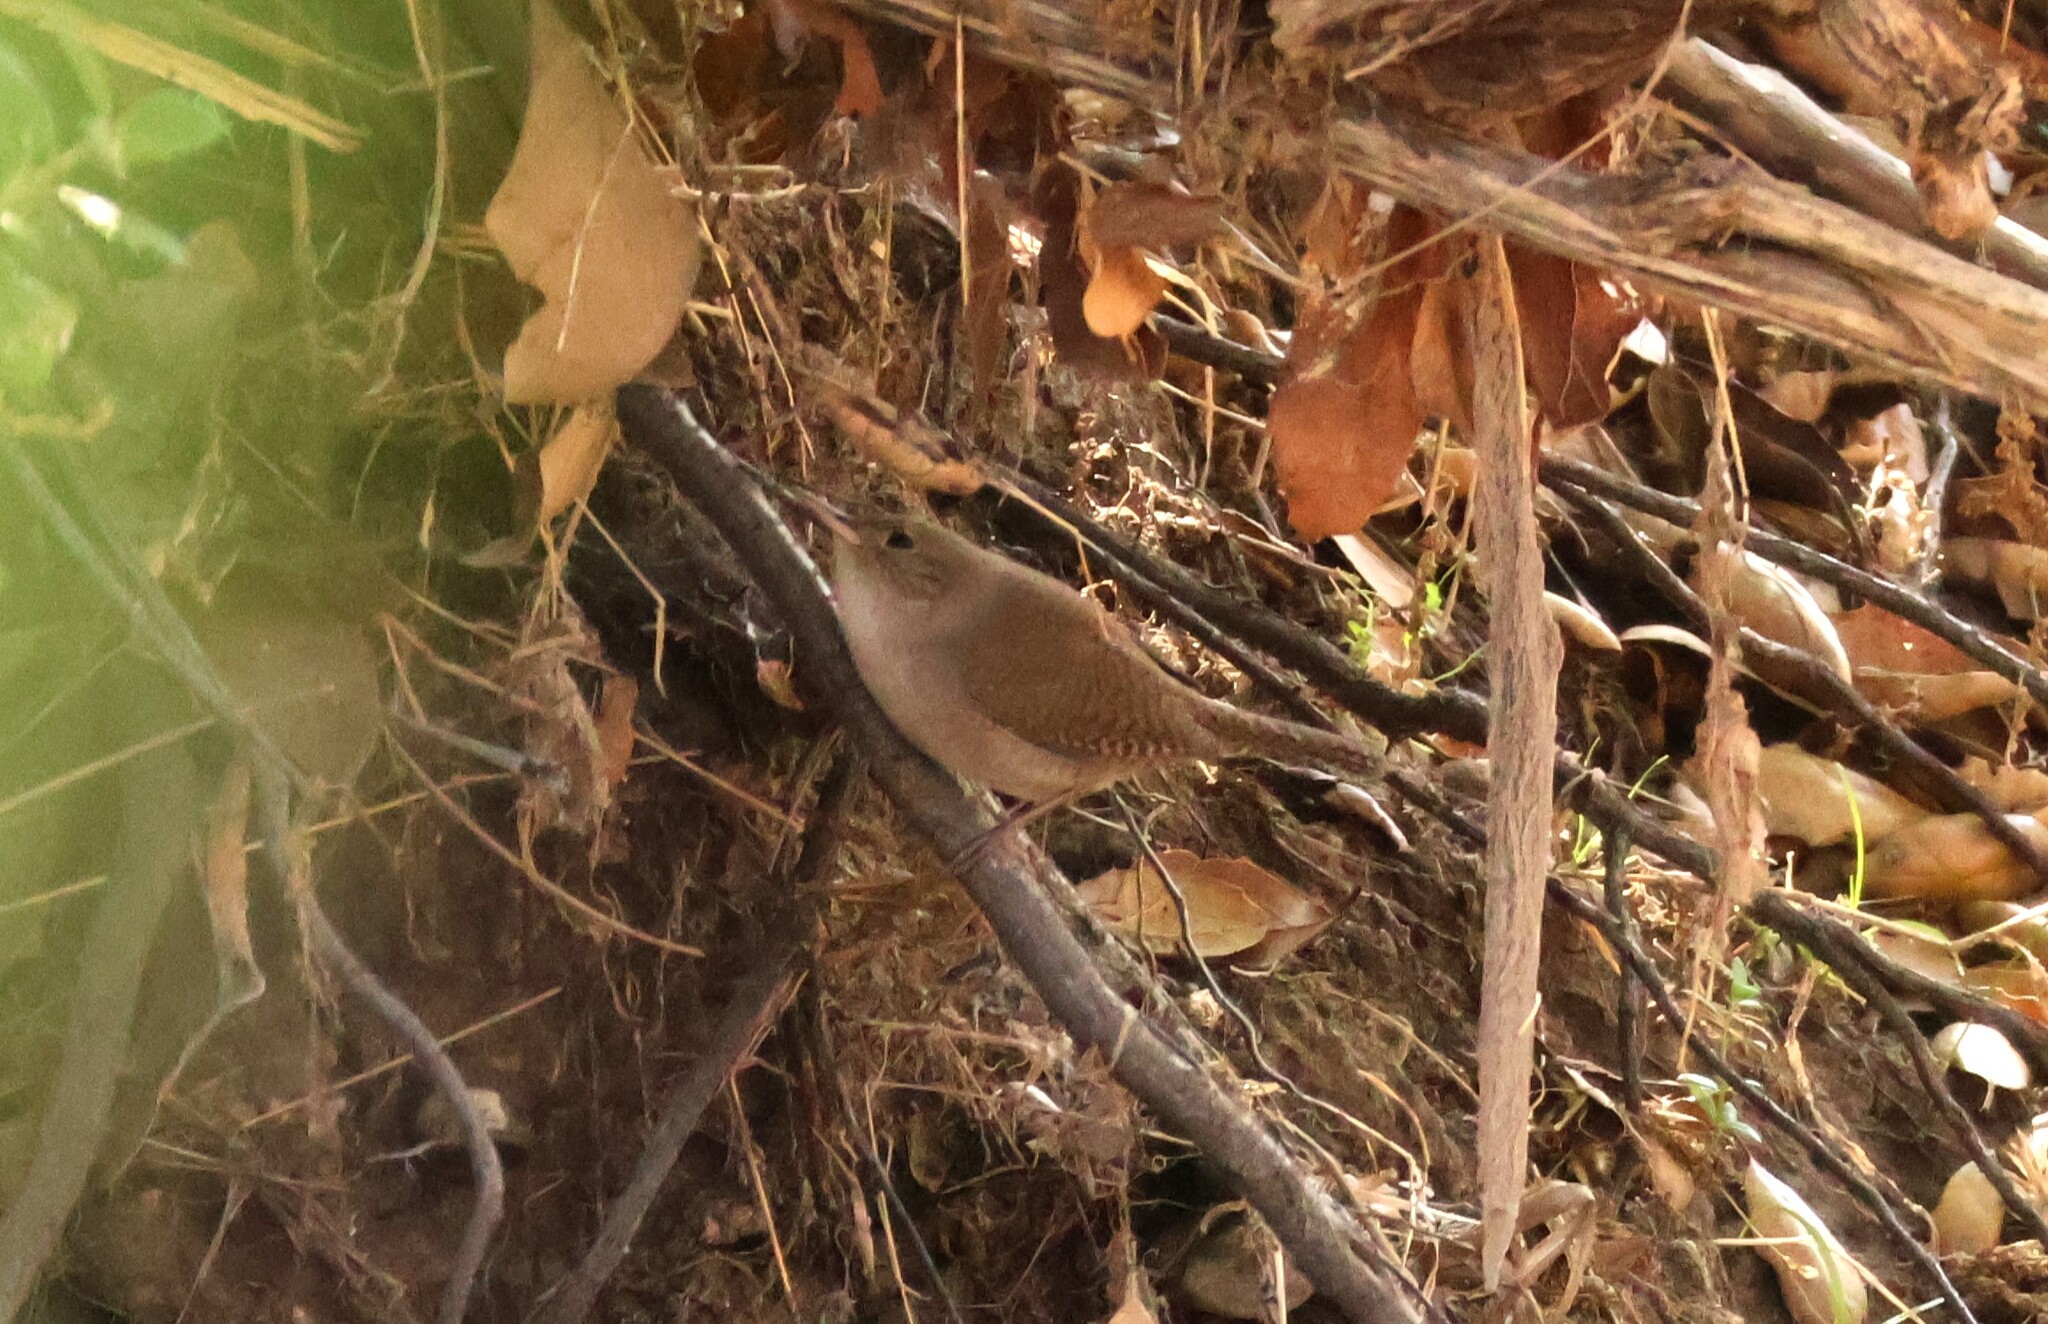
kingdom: Animalia
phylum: Chordata
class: Aves
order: Passeriformes
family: Troglodytidae
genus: Troglodytes
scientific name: Troglodytes aedon
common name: House wren
